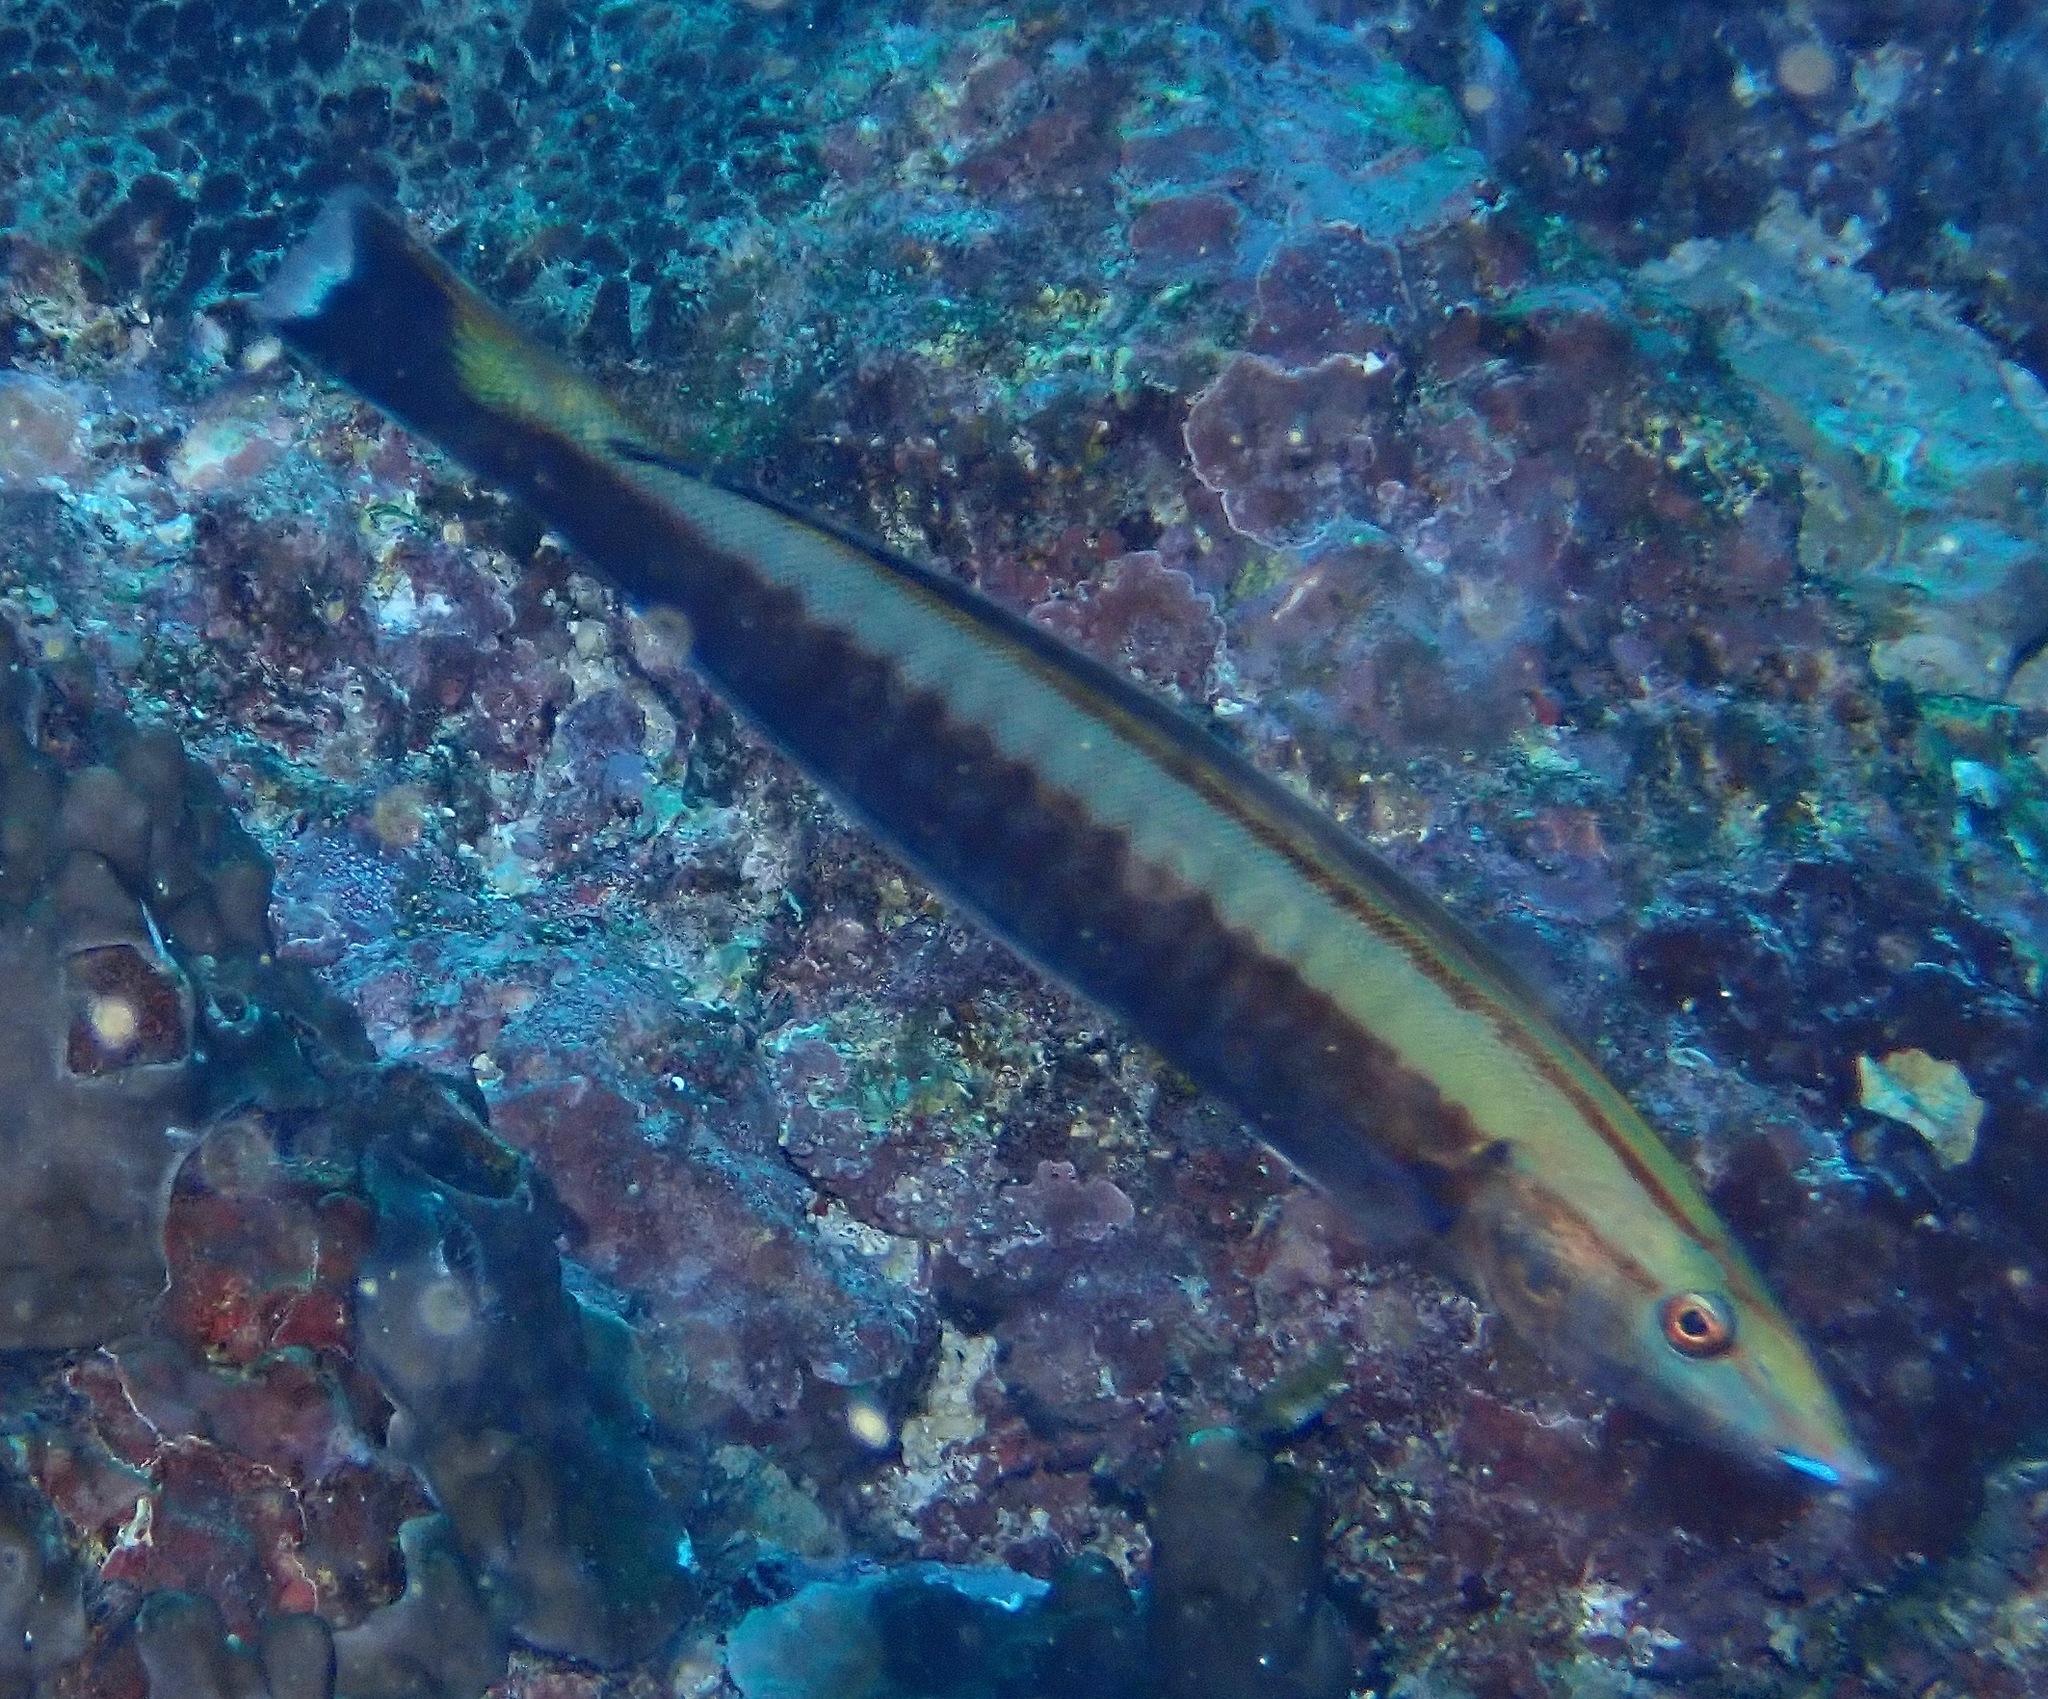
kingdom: Animalia
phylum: Chordata
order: Perciformes
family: Labridae
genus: Hologymnosus
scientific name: Hologymnosus annulatus
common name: Ring wrasse
